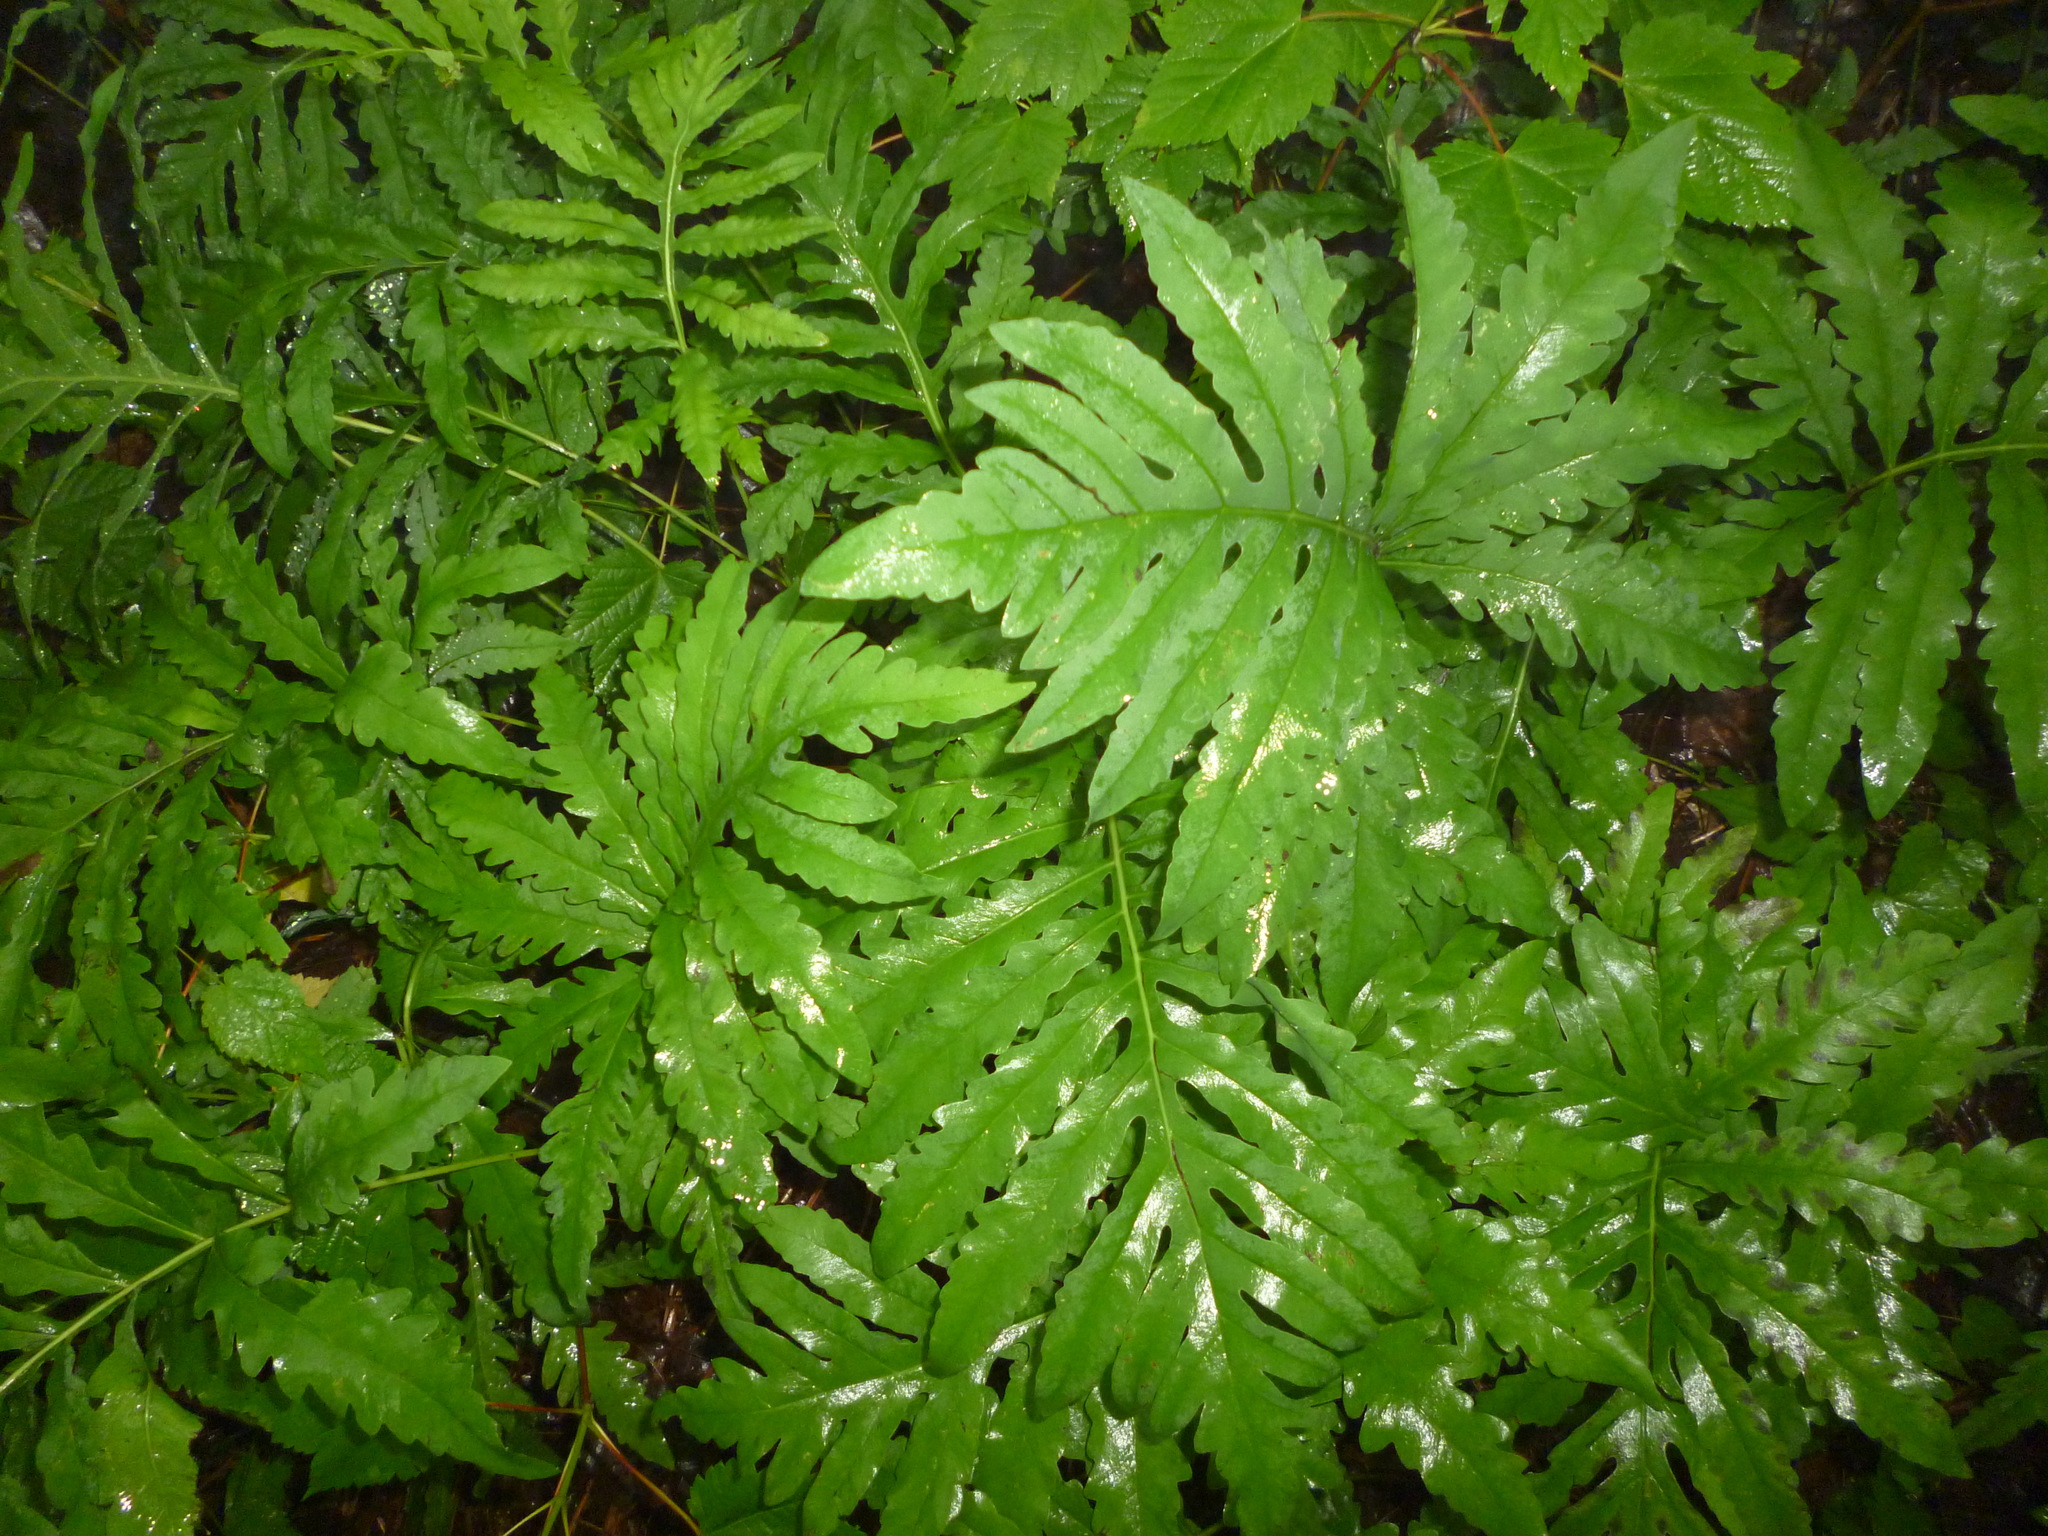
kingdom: Plantae
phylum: Tracheophyta
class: Polypodiopsida
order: Polypodiales
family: Onocleaceae
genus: Onoclea
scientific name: Onoclea sensibilis
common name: Sensitive fern
